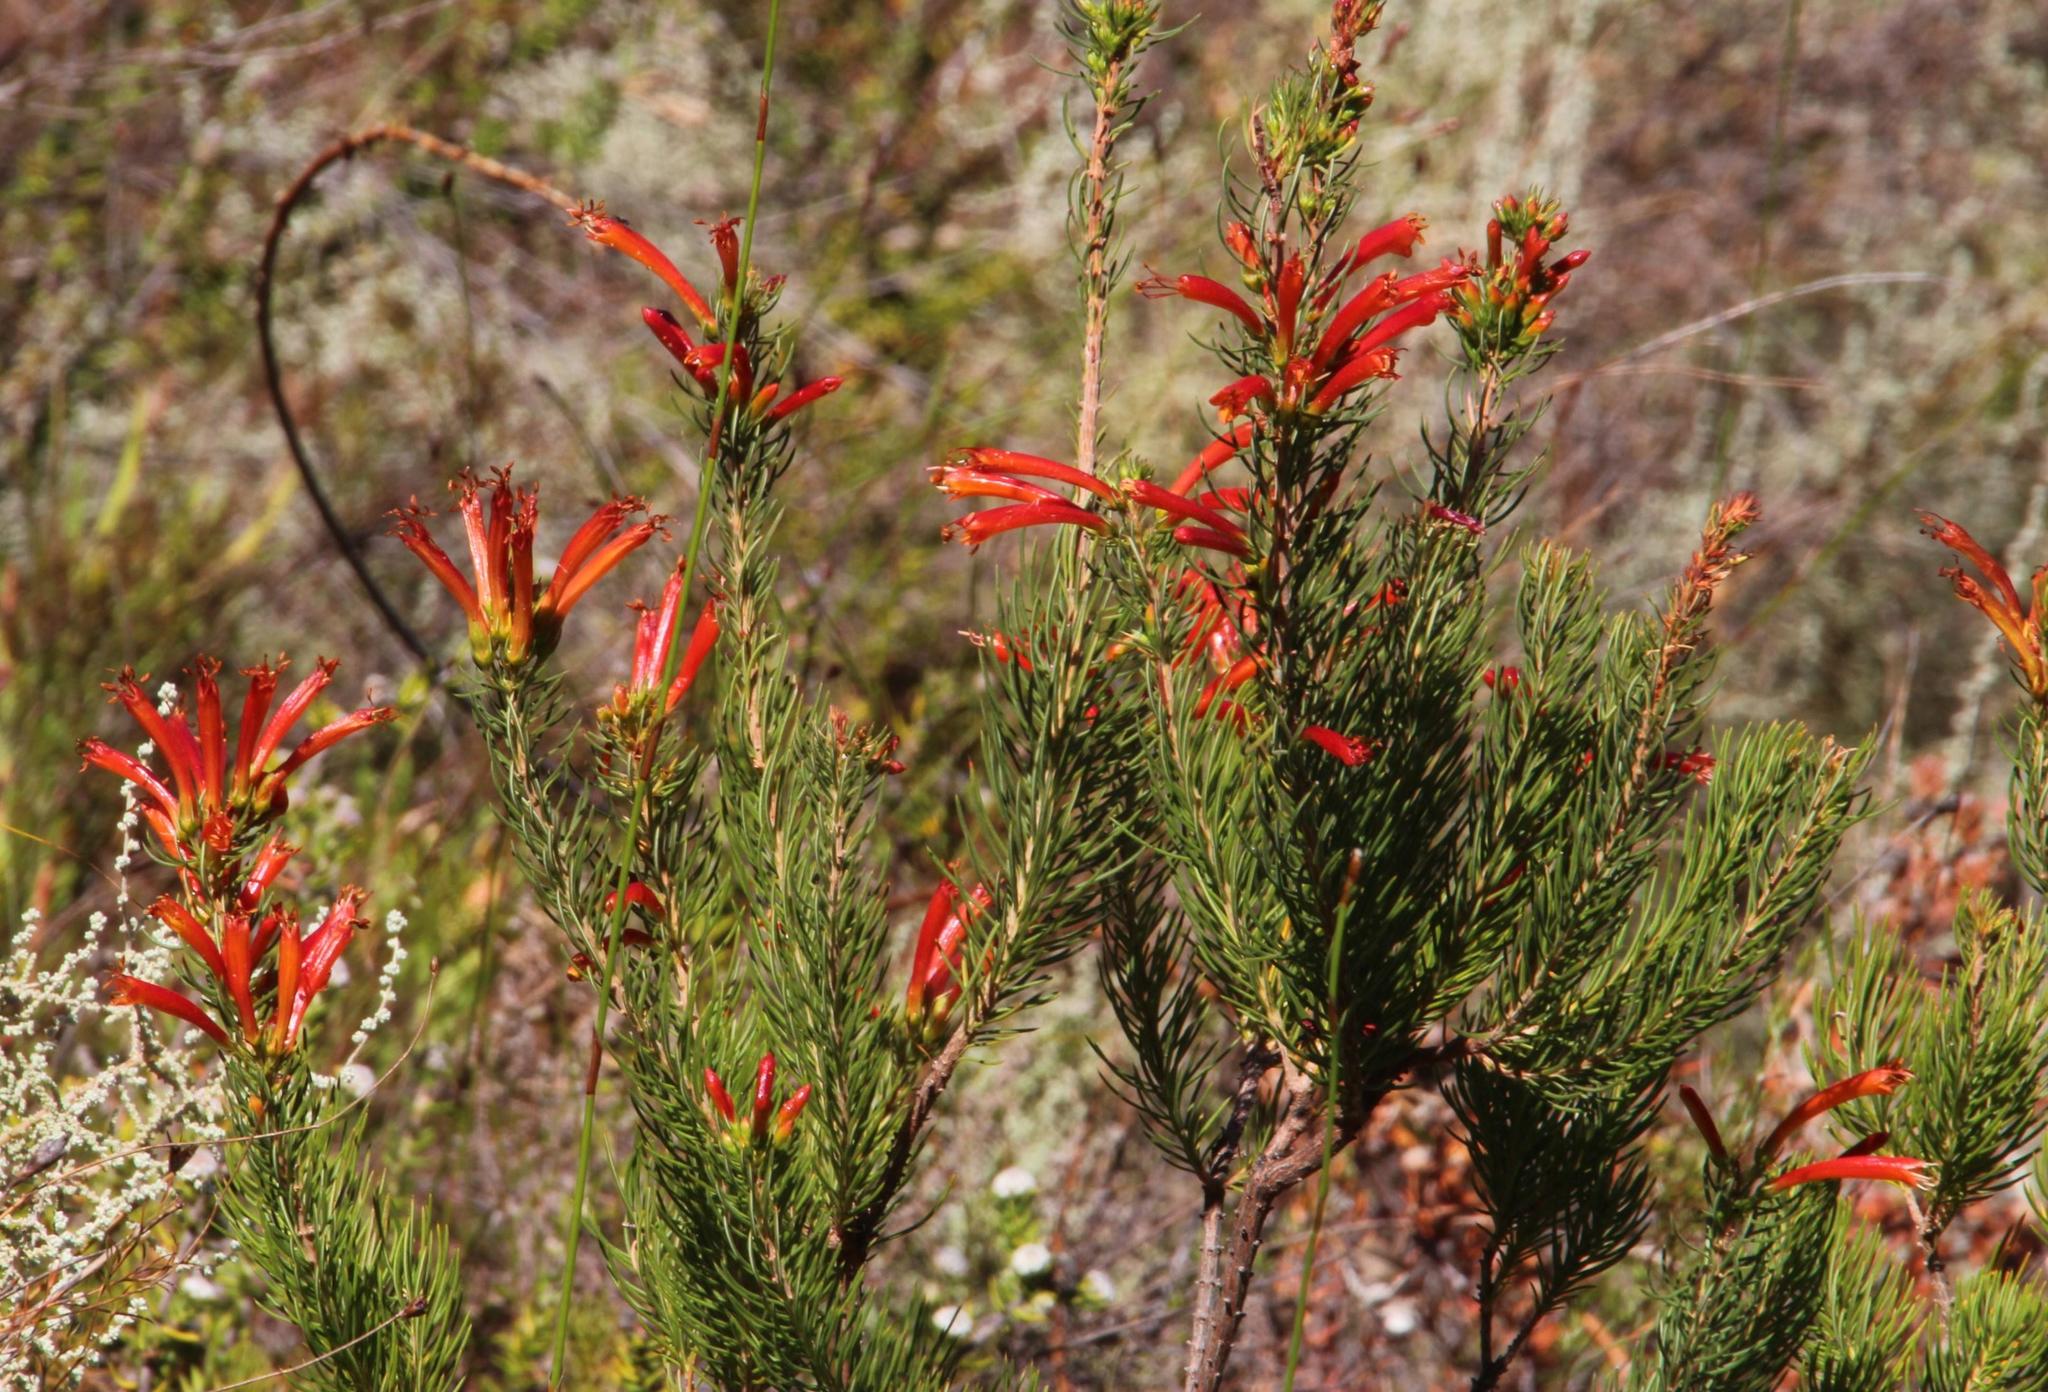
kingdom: Plantae
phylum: Tracheophyta
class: Magnoliopsida
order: Ericales
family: Ericaceae
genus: Erica
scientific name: Erica grandiflora
